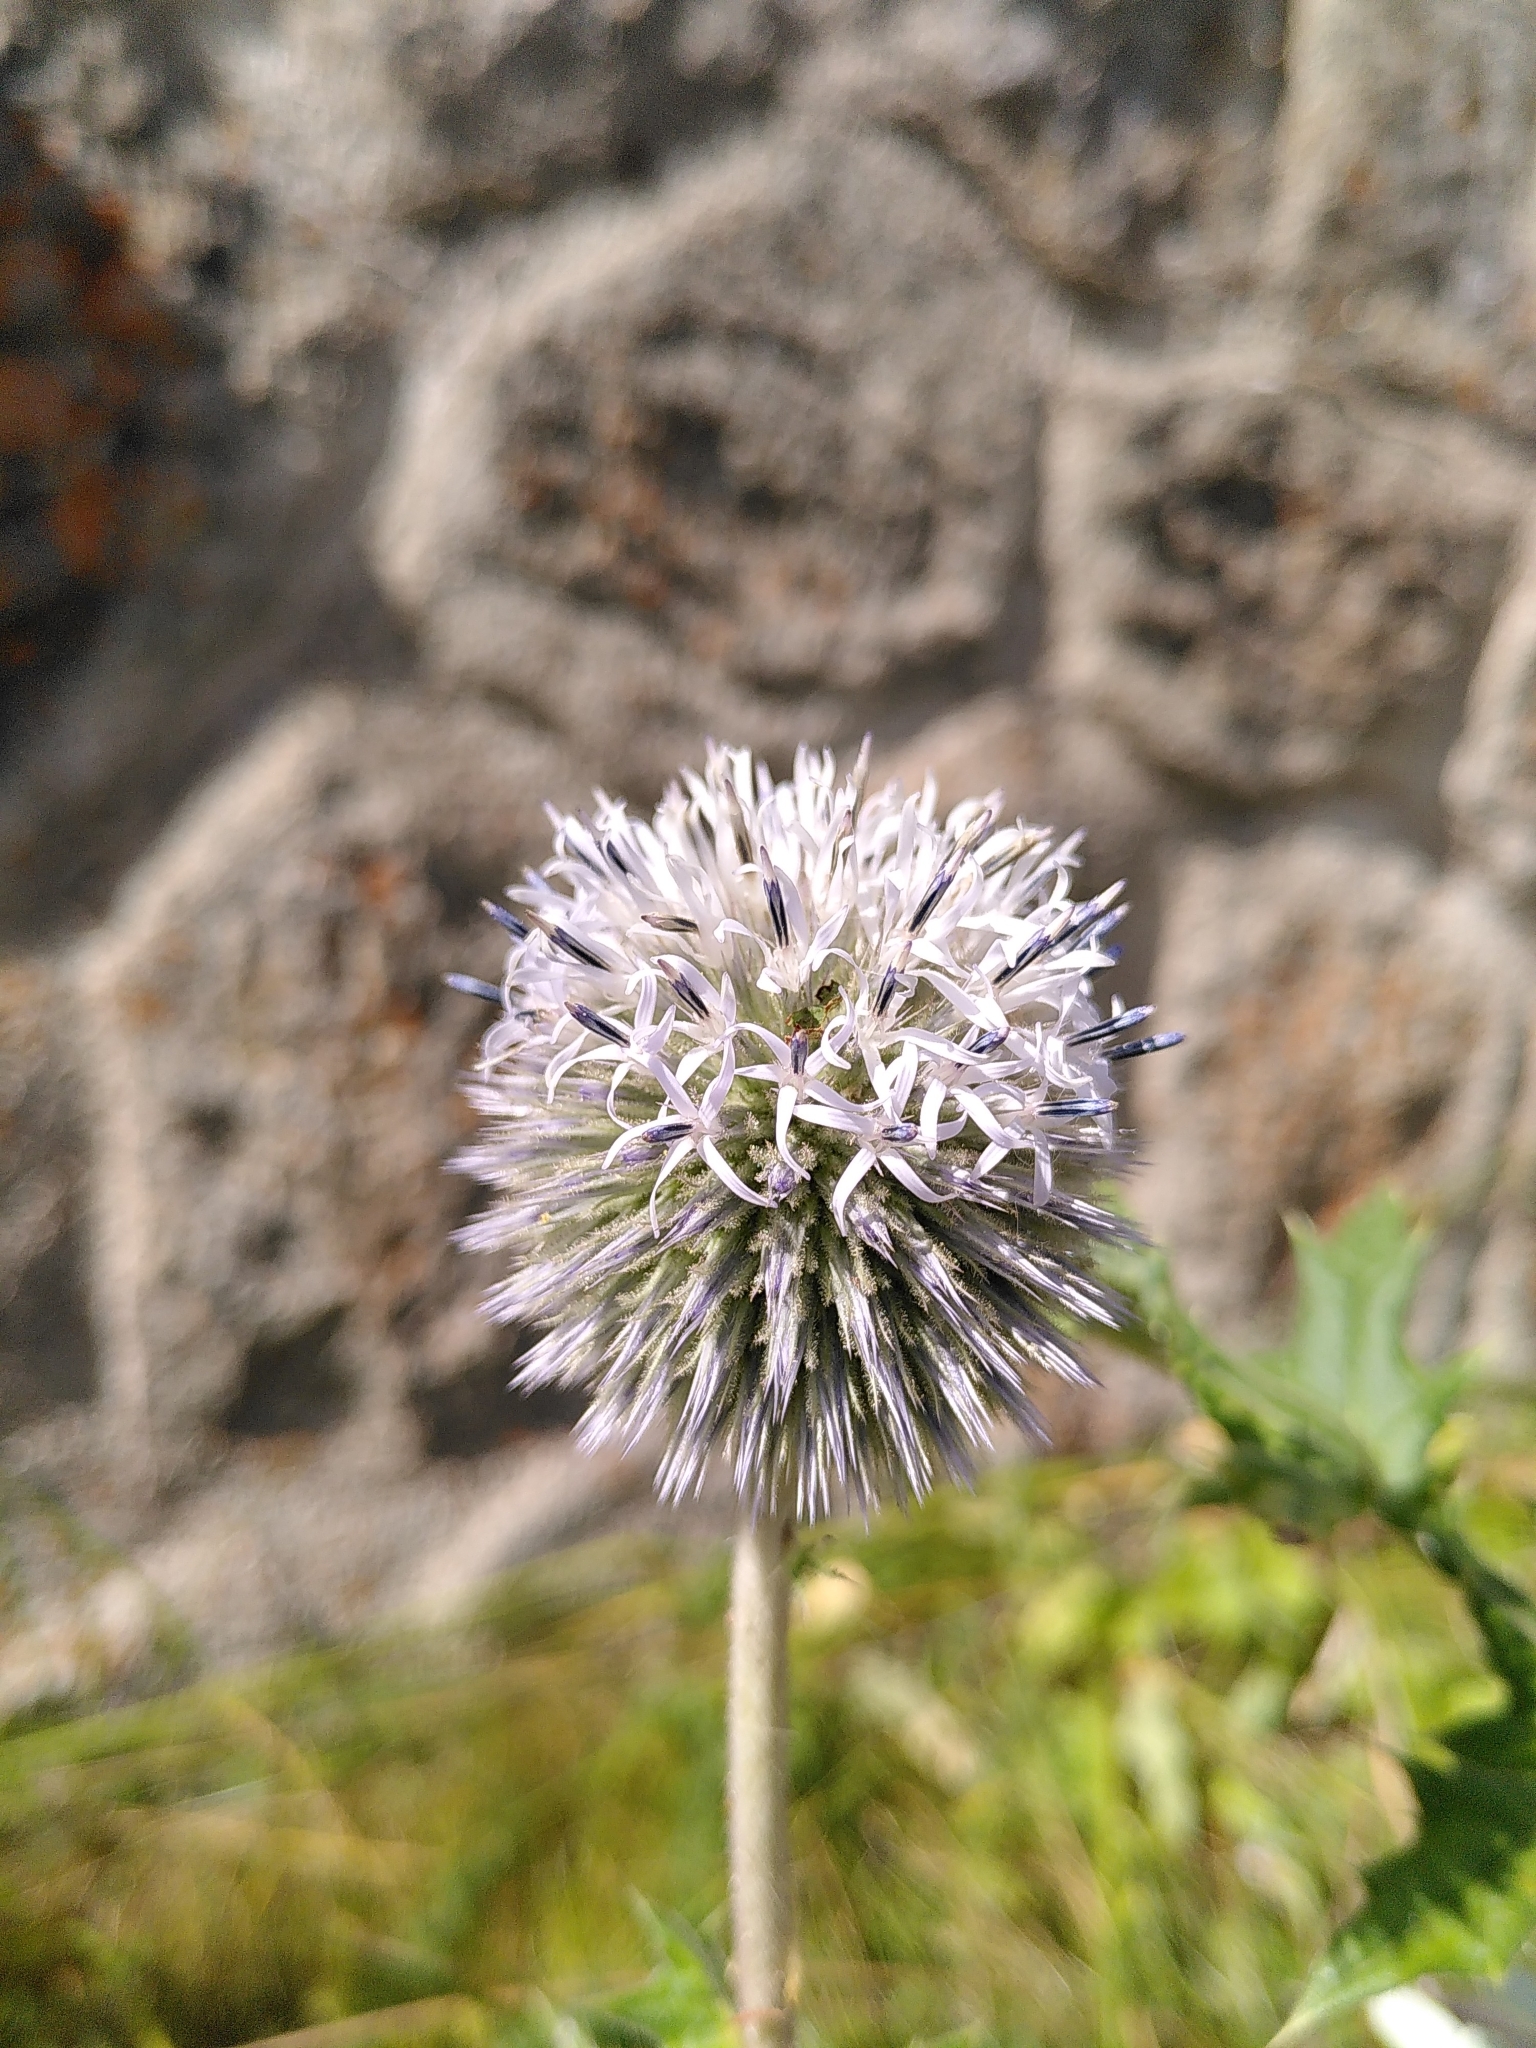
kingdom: Plantae
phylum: Tracheophyta
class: Magnoliopsida
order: Asterales
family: Asteraceae
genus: Echinops
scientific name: Echinops sphaerocephalus
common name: Glandular globe-thistle
